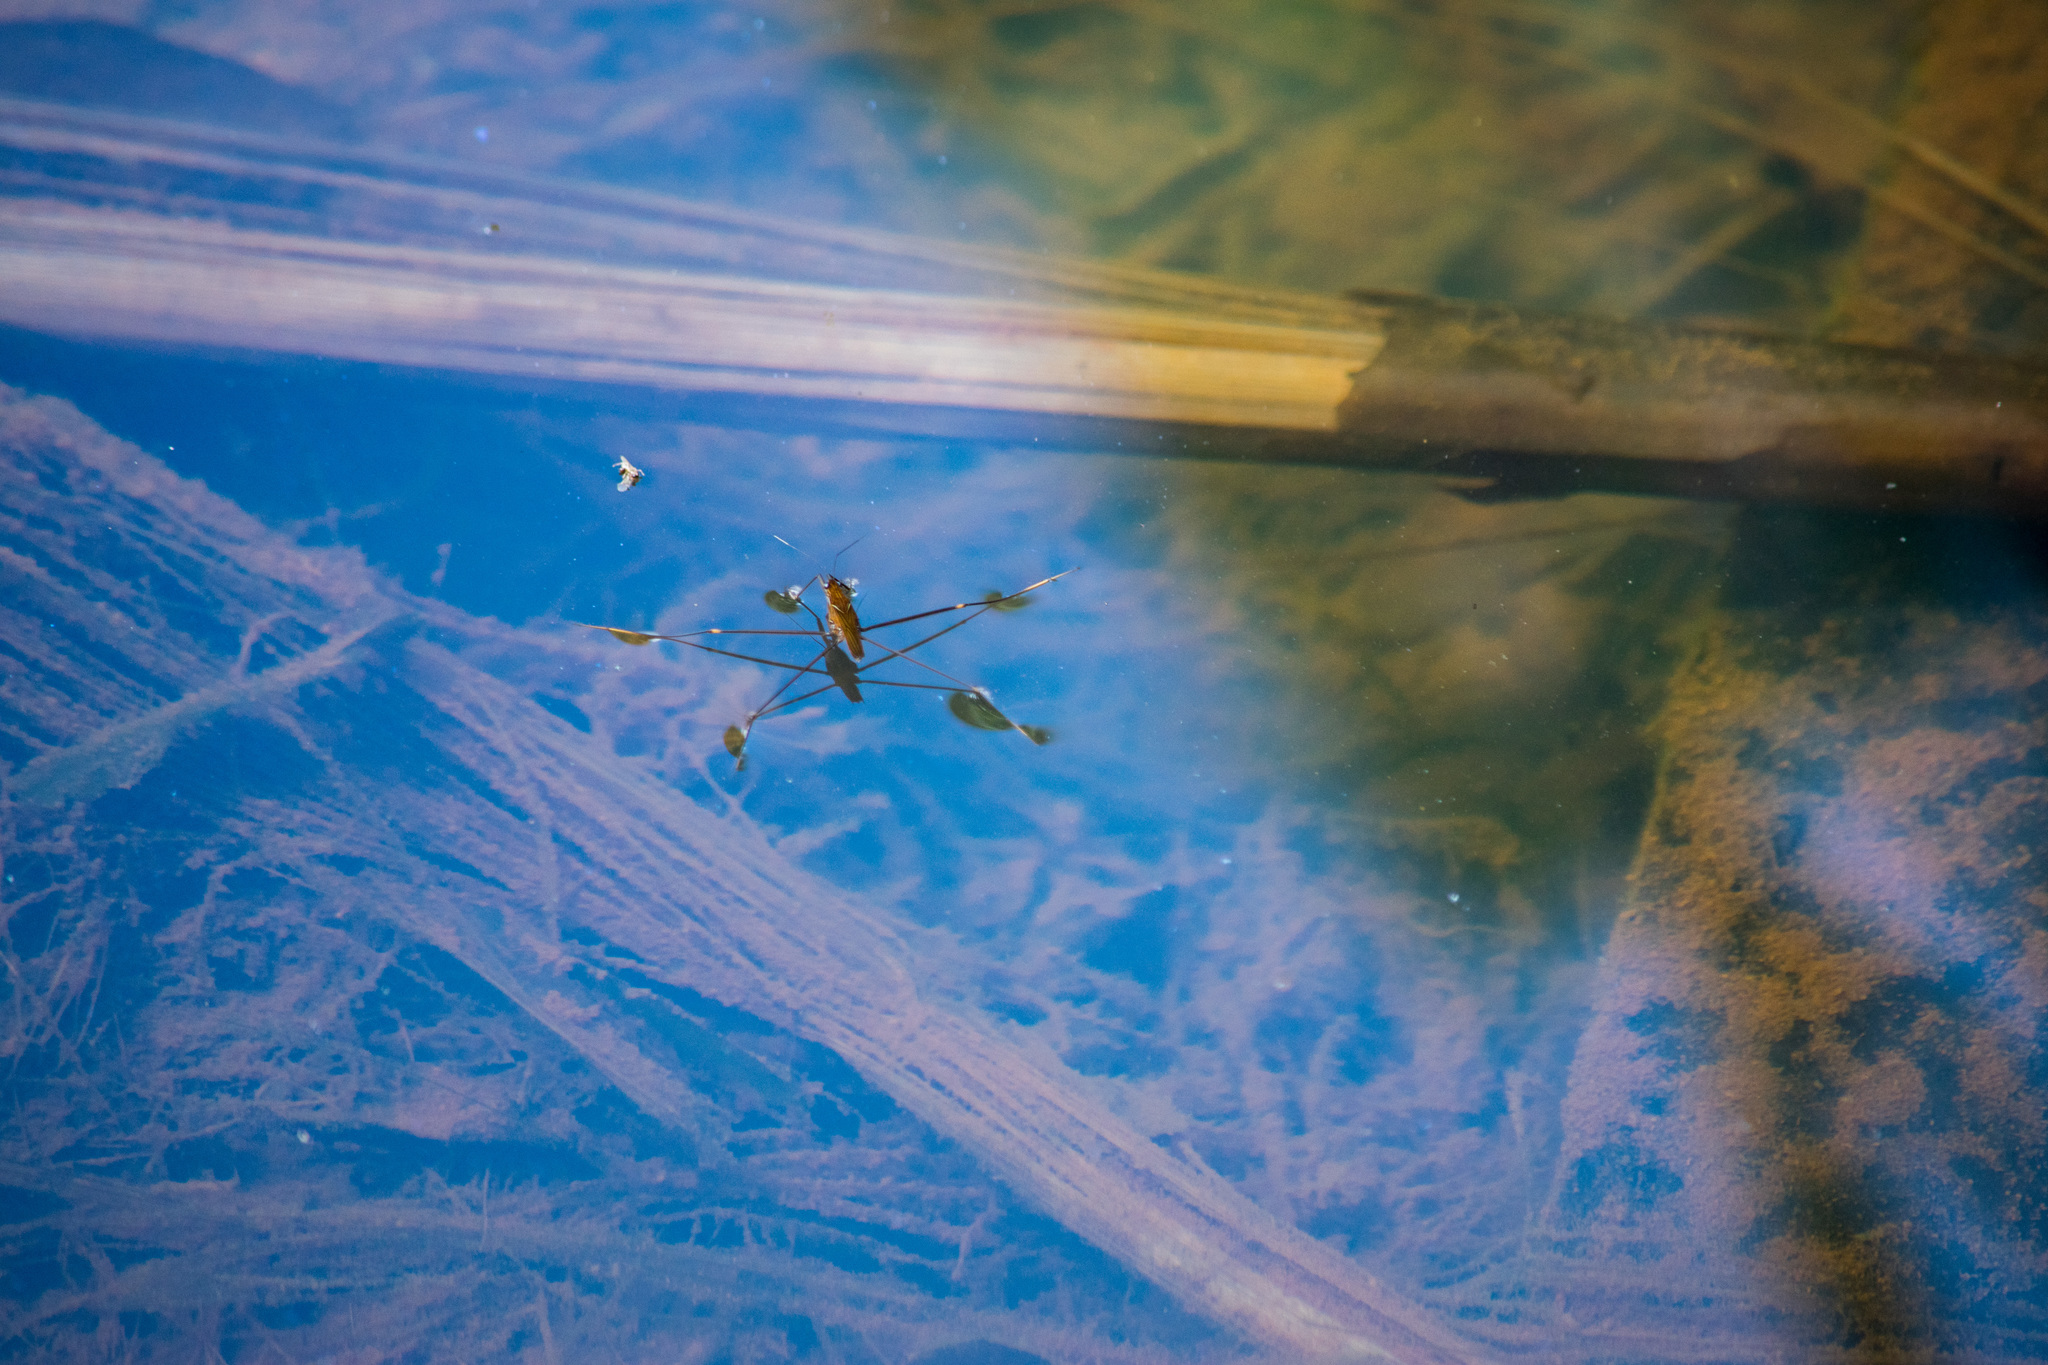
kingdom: Animalia
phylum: Arthropoda
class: Insecta
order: Hemiptera
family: Gerridae
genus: Limnometra
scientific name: Limnometra
